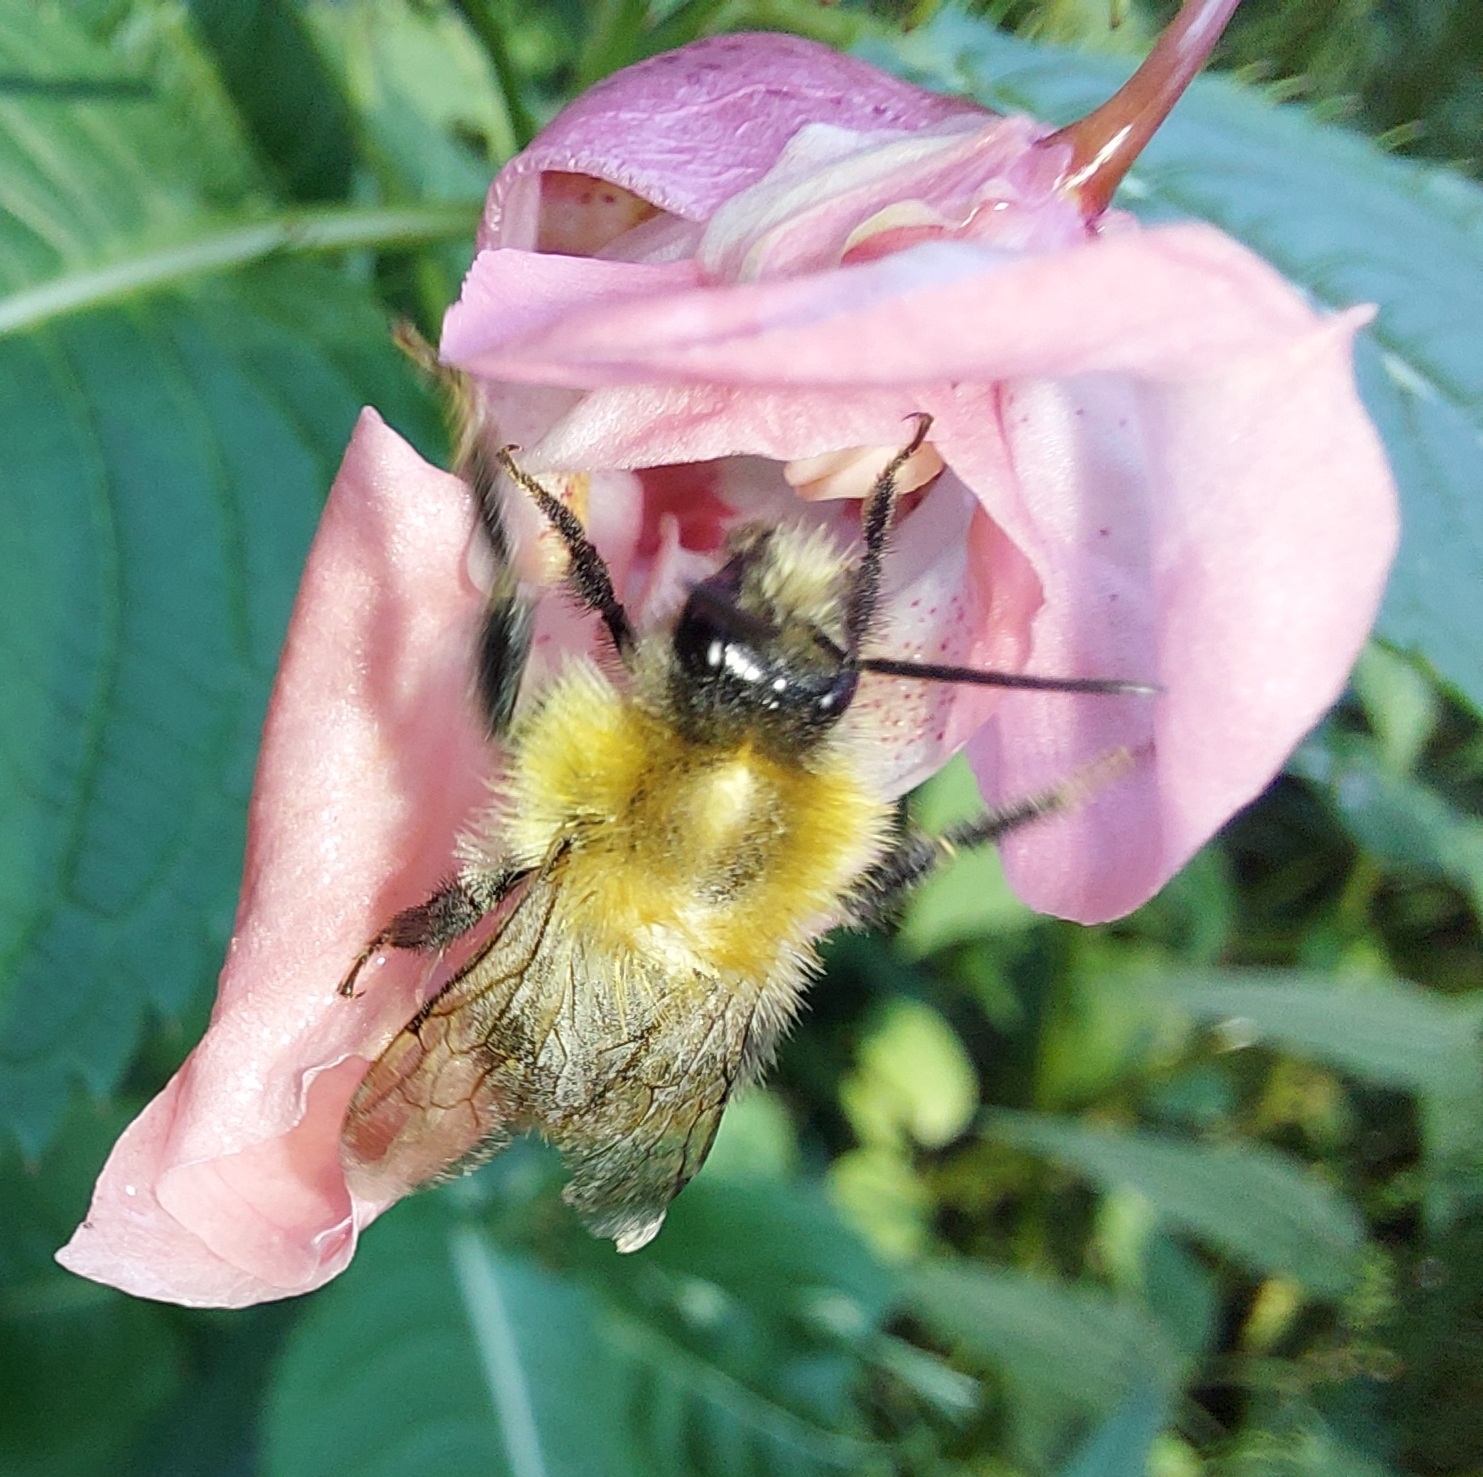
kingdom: Animalia
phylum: Arthropoda
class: Insecta
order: Hymenoptera
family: Apidae
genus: Bombus
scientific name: Bombus
